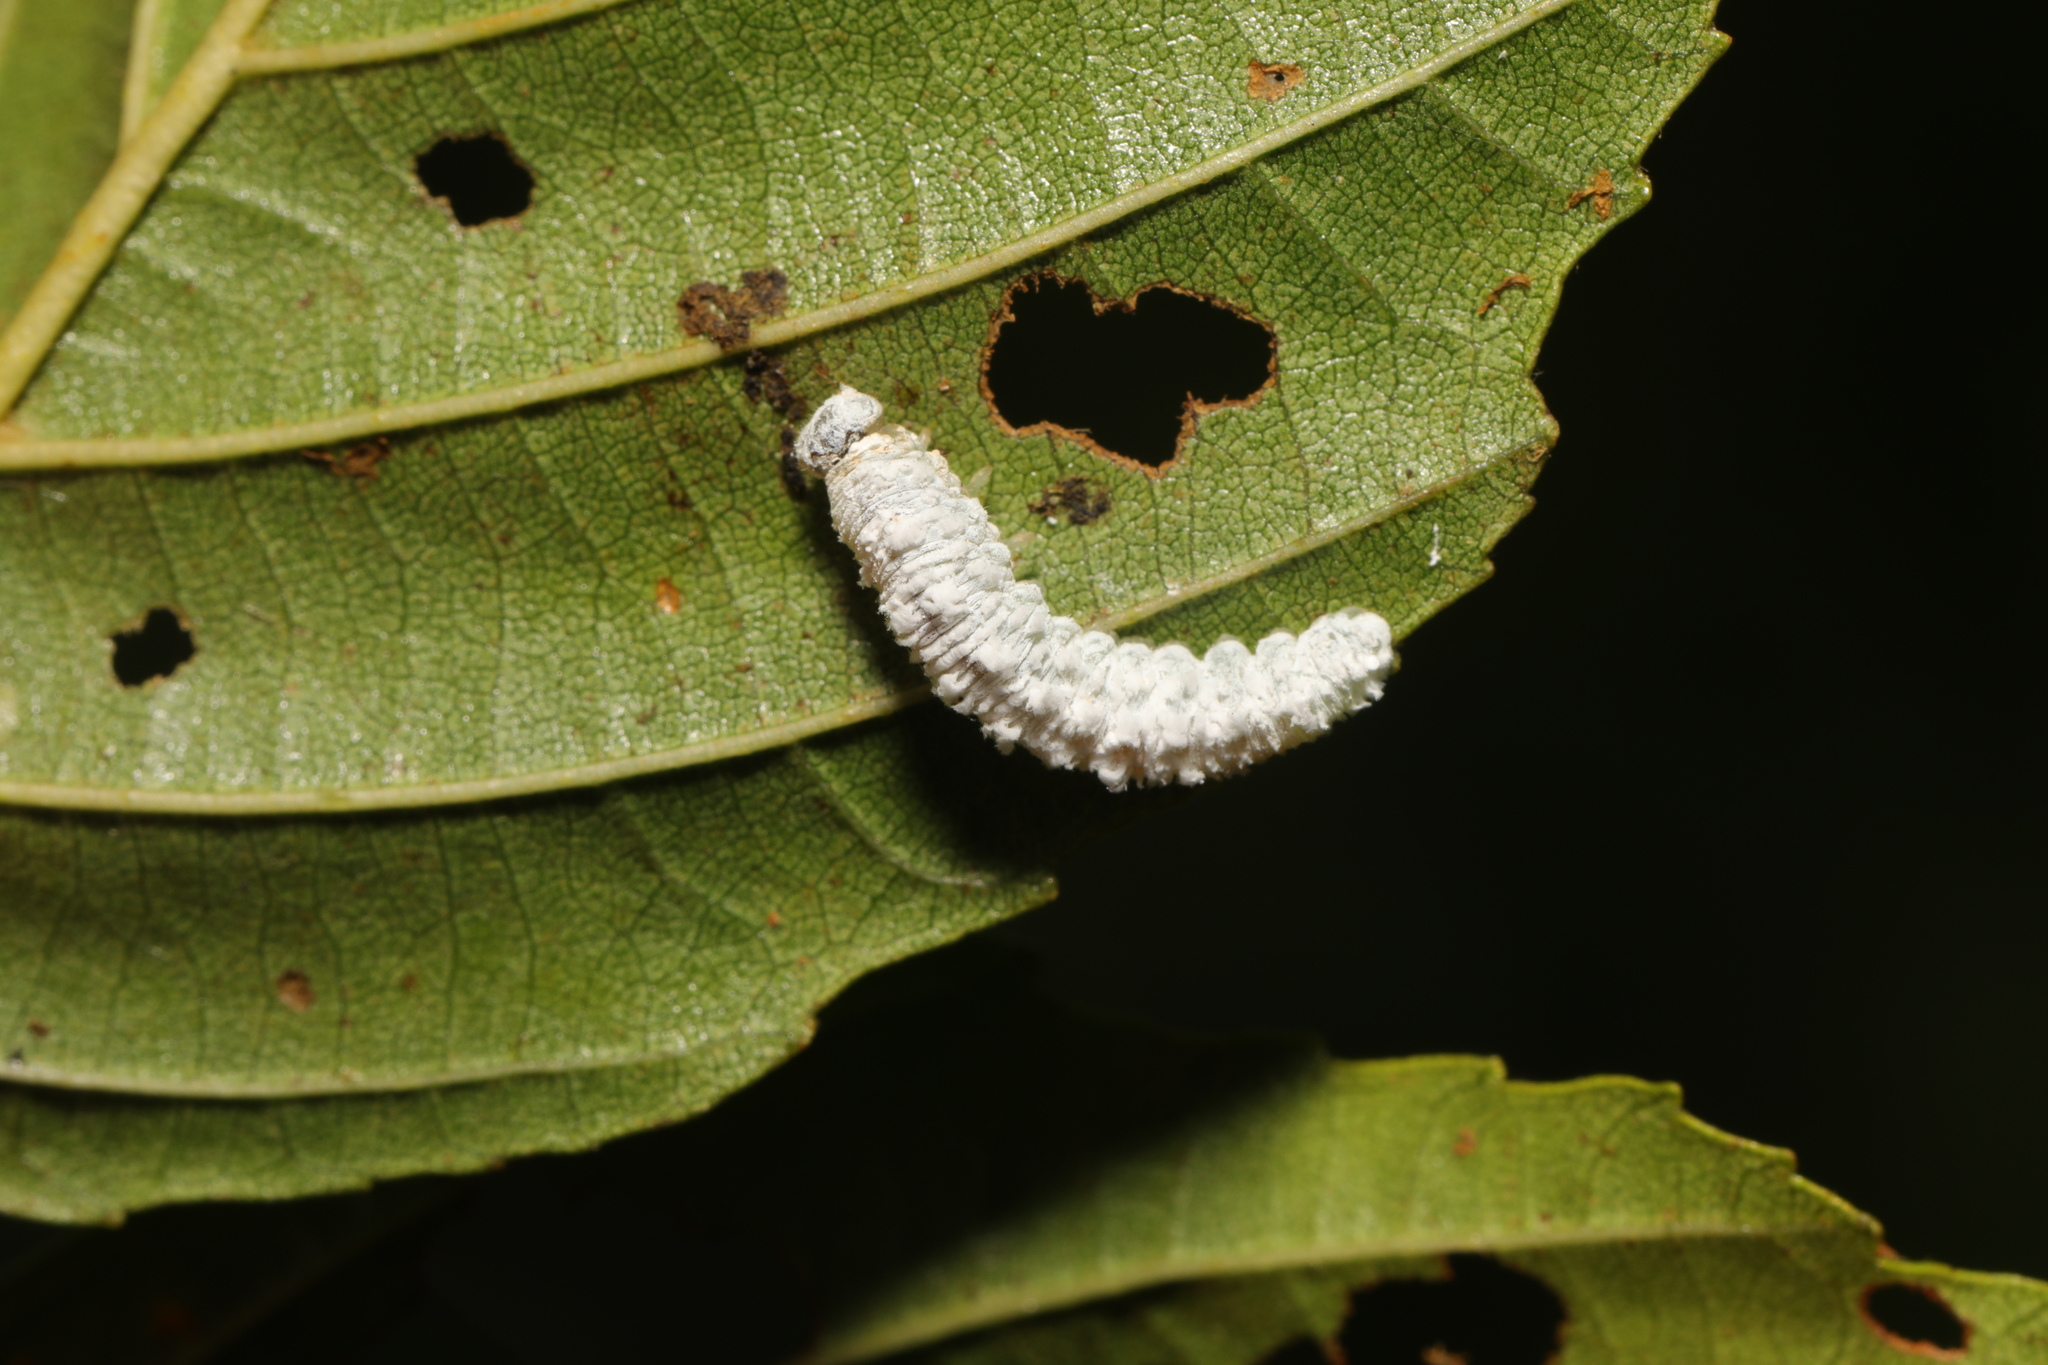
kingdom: Animalia
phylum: Arthropoda
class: Insecta
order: Hymenoptera
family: Tenthredinidae
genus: Eriocampa
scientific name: Eriocampa ovata
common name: Alder wooly sawfly
